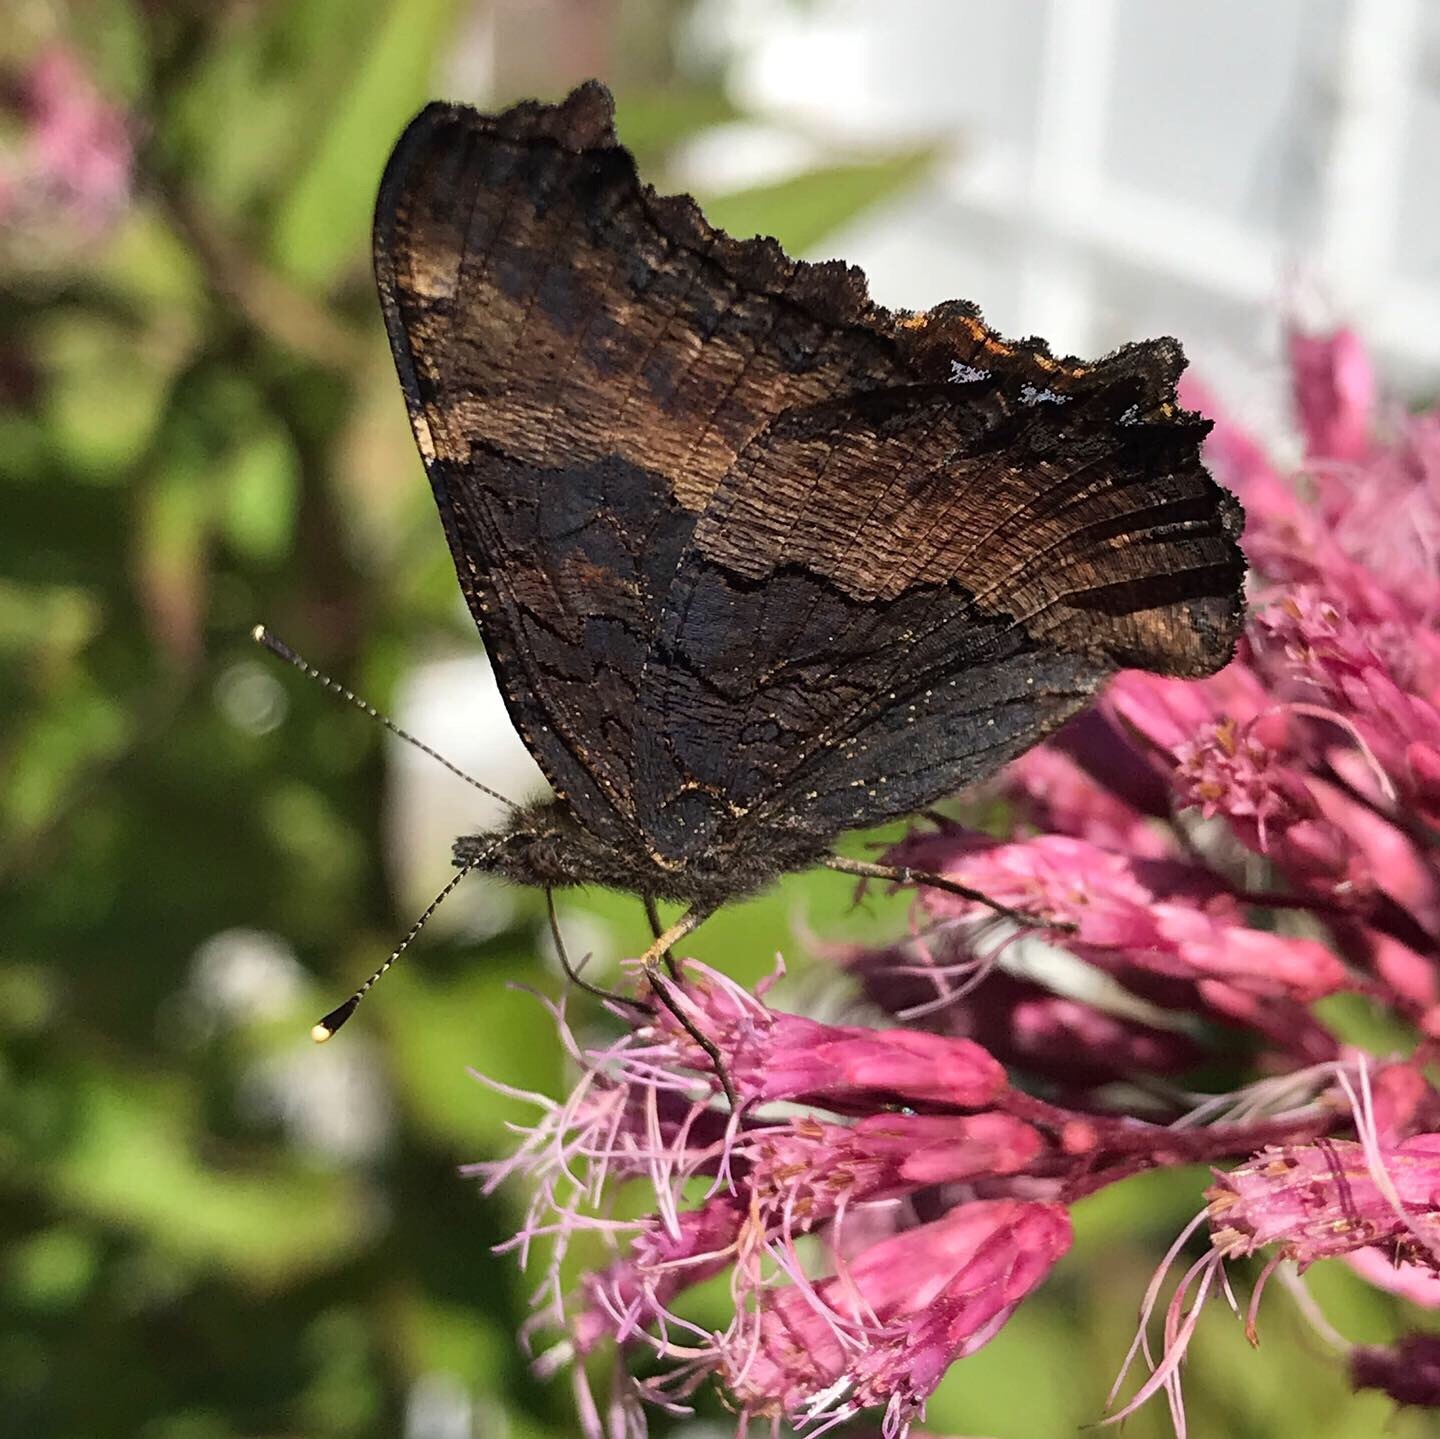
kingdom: Animalia
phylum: Arthropoda
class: Insecta
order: Lepidoptera
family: Nymphalidae
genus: Aglais
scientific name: Aglais milberti
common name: Milbert's tortoiseshell
